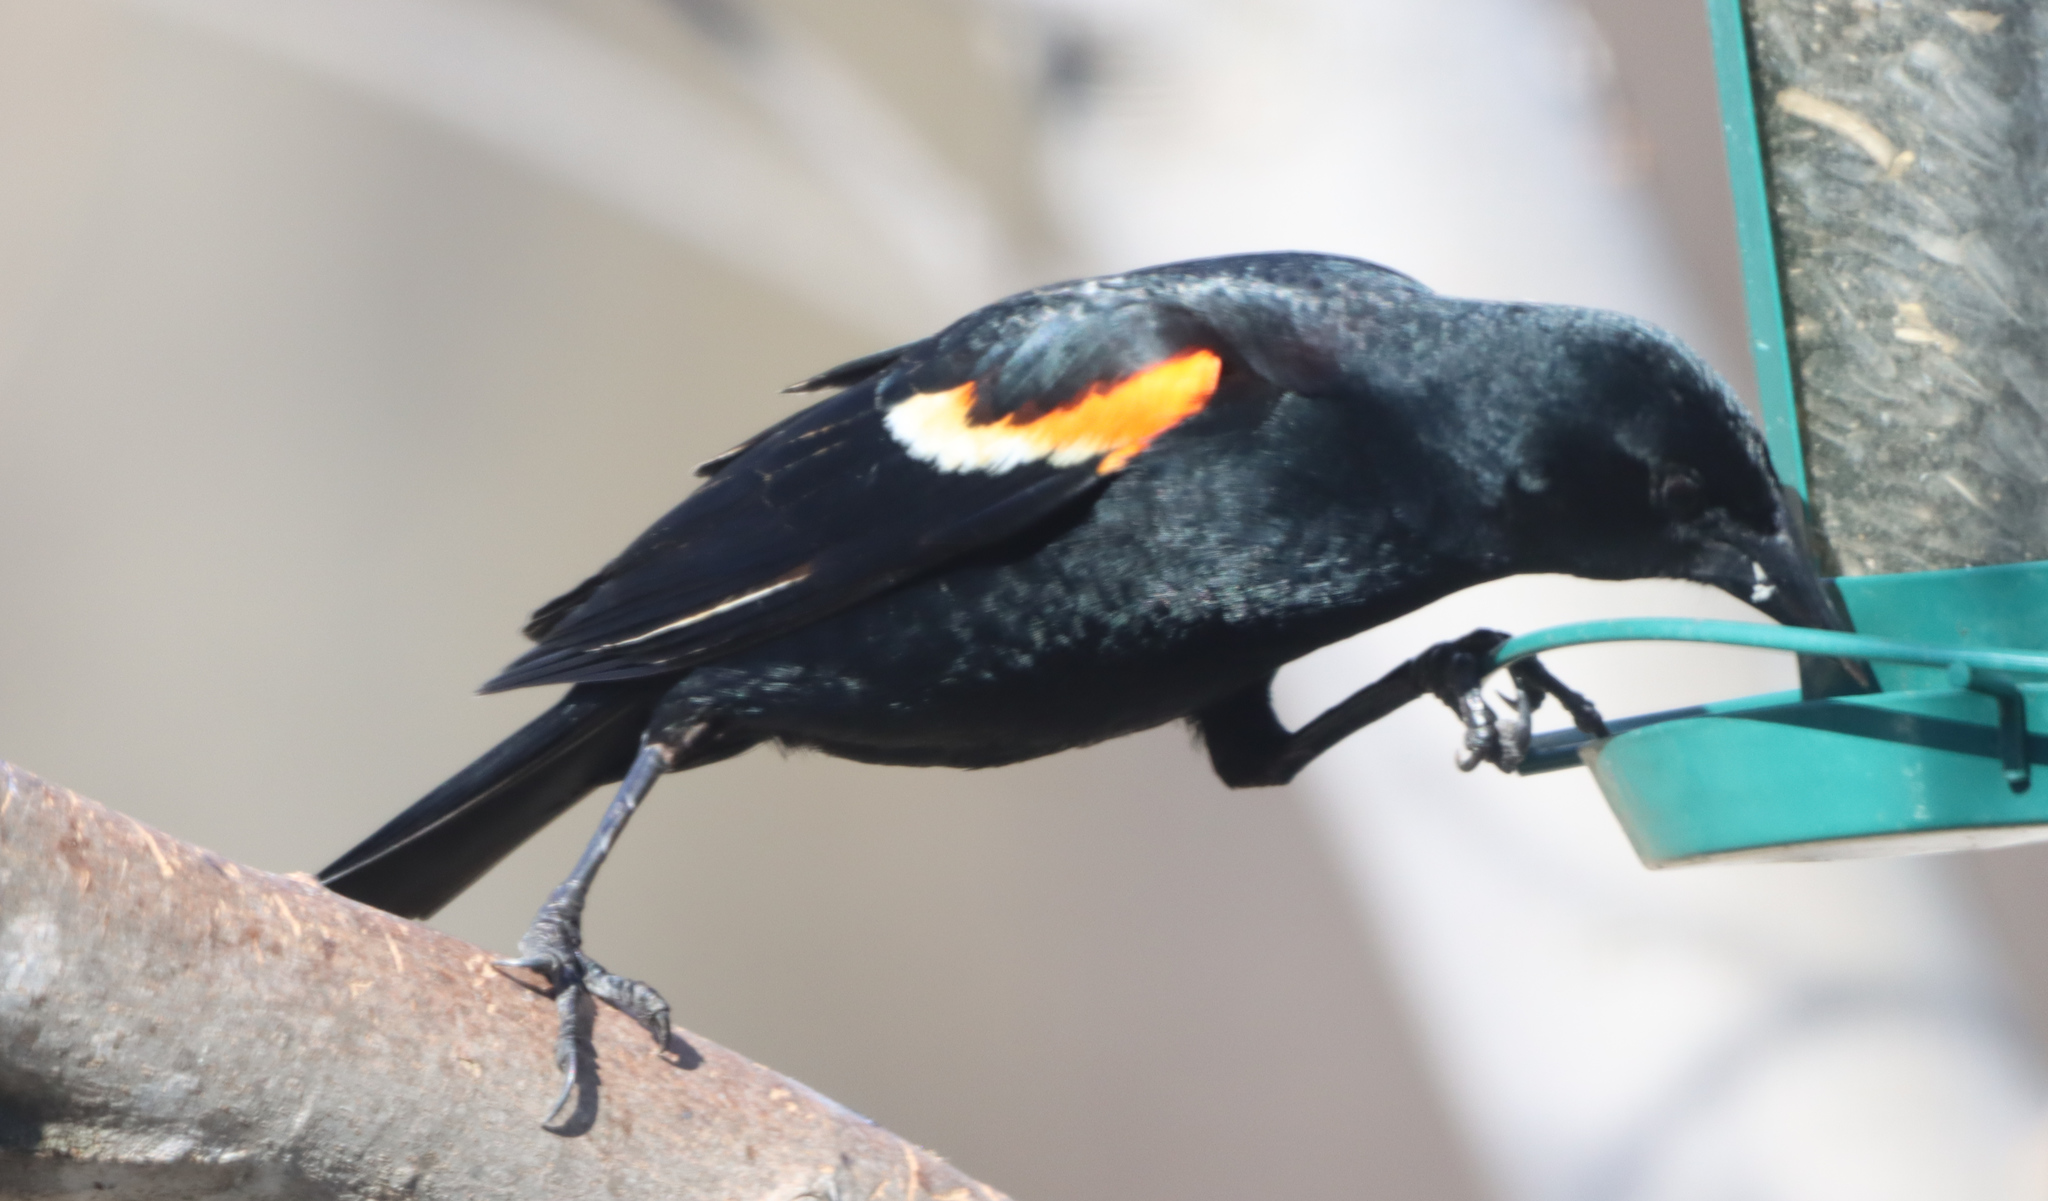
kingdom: Animalia
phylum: Chordata
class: Aves
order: Passeriformes
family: Icteridae
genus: Agelaius
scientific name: Agelaius phoeniceus
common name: Red-winged blackbird
